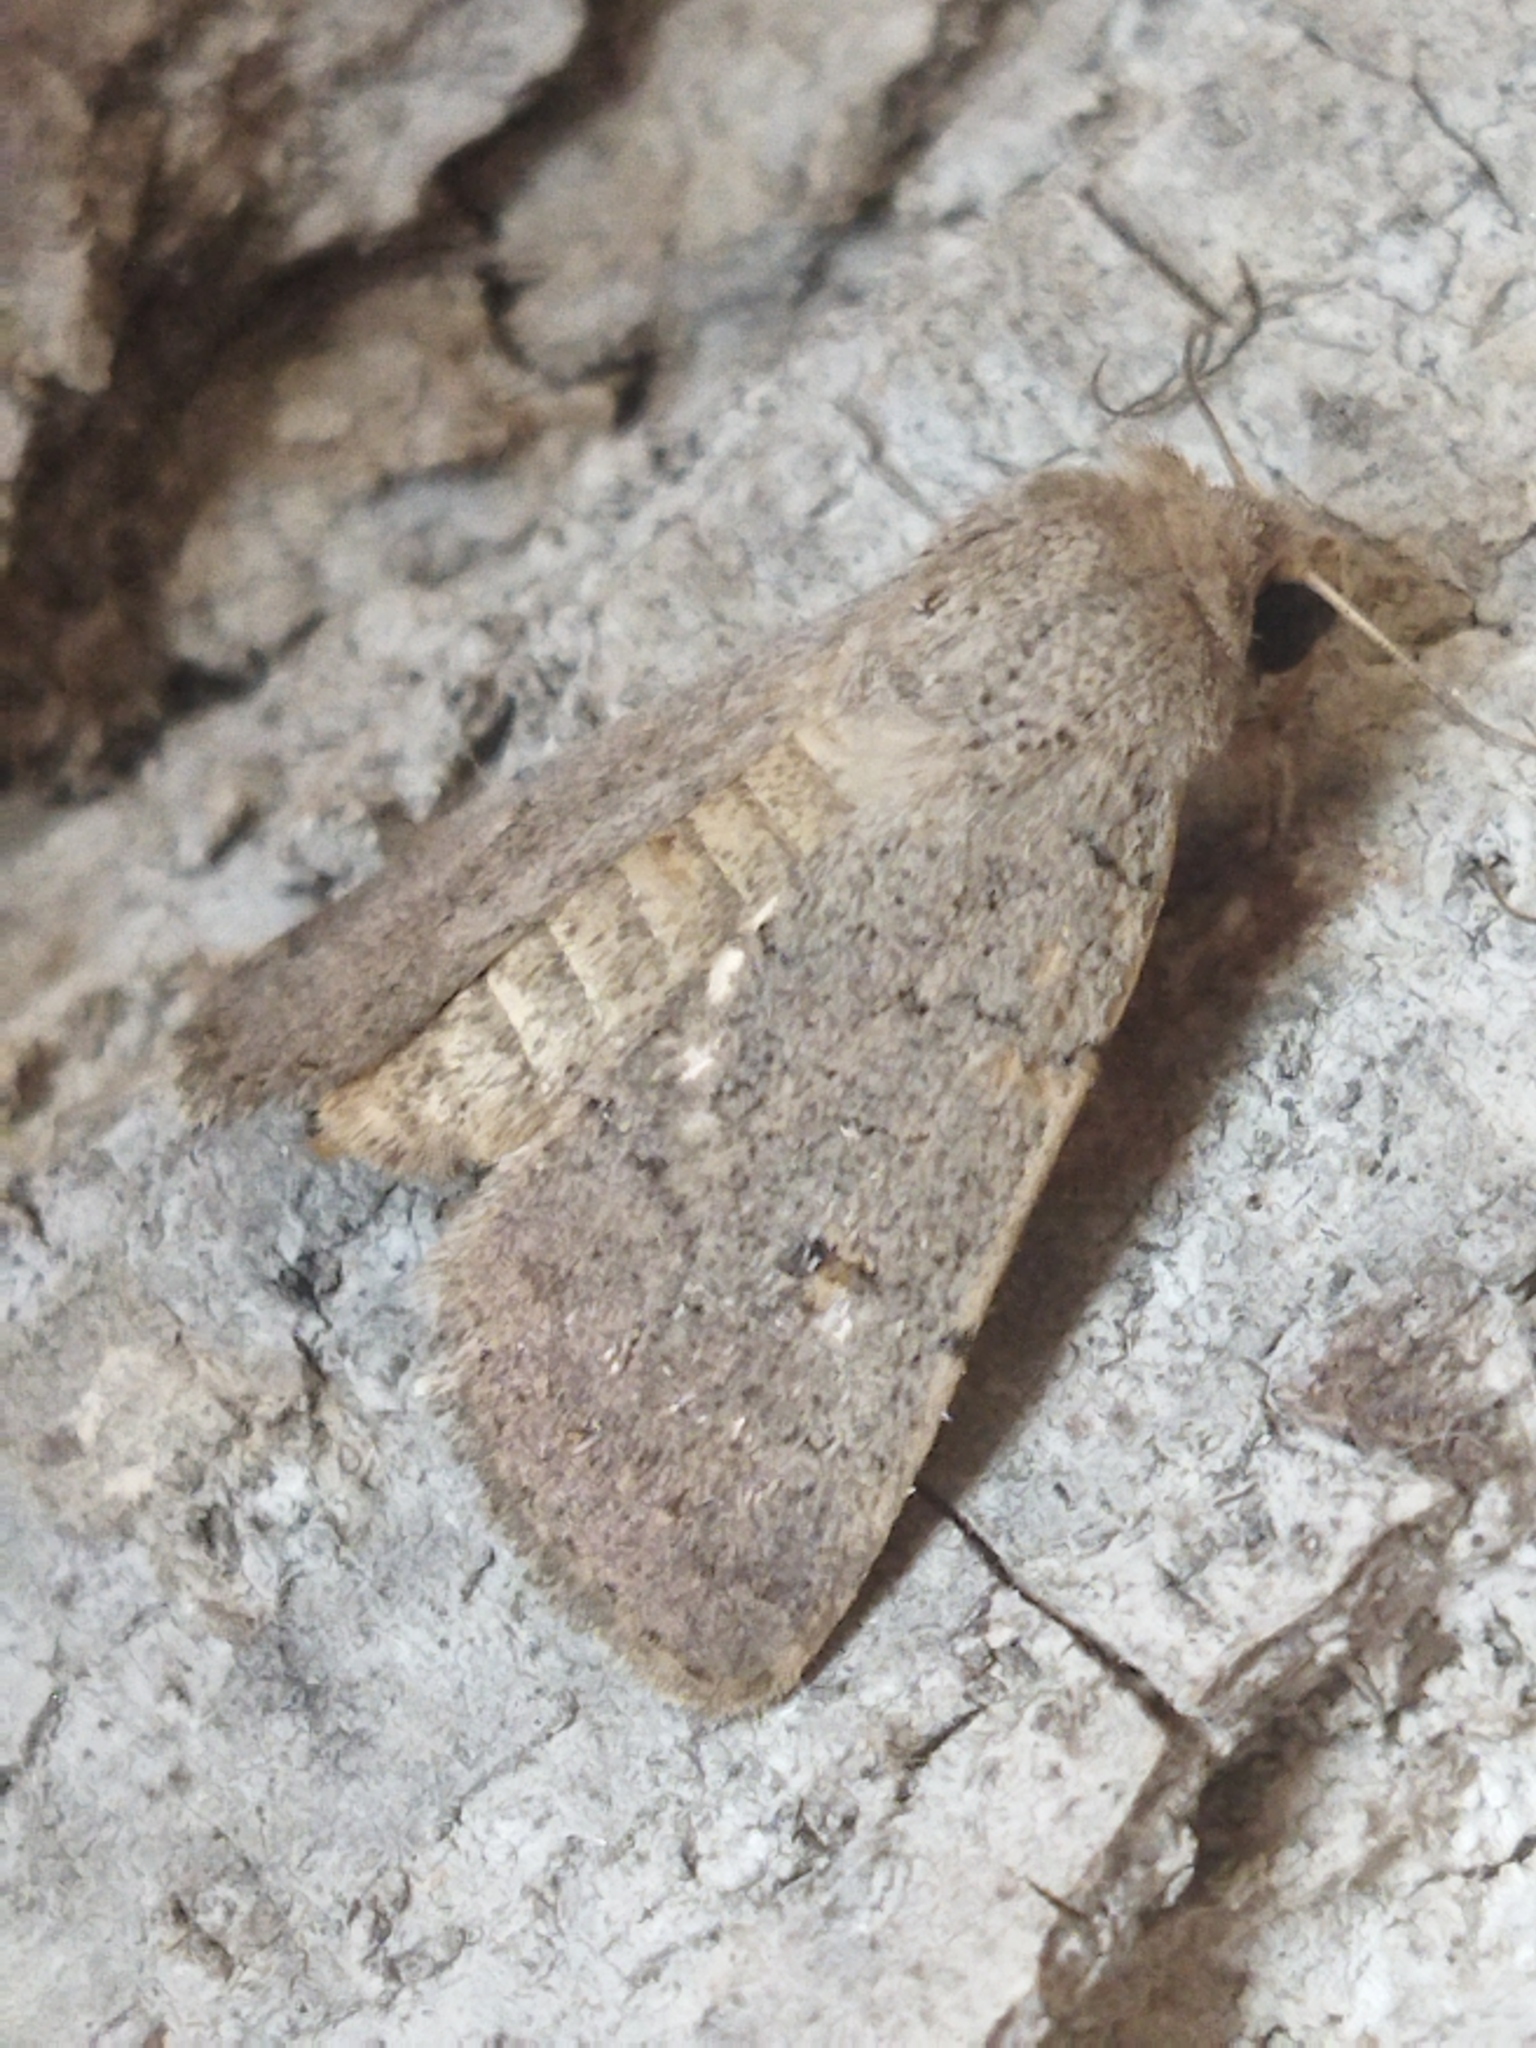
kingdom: Animalia
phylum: Arthropoda
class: Insecta
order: Lepidoptera
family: Noctuidae
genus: Caradrina
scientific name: Caradrina aspersa
